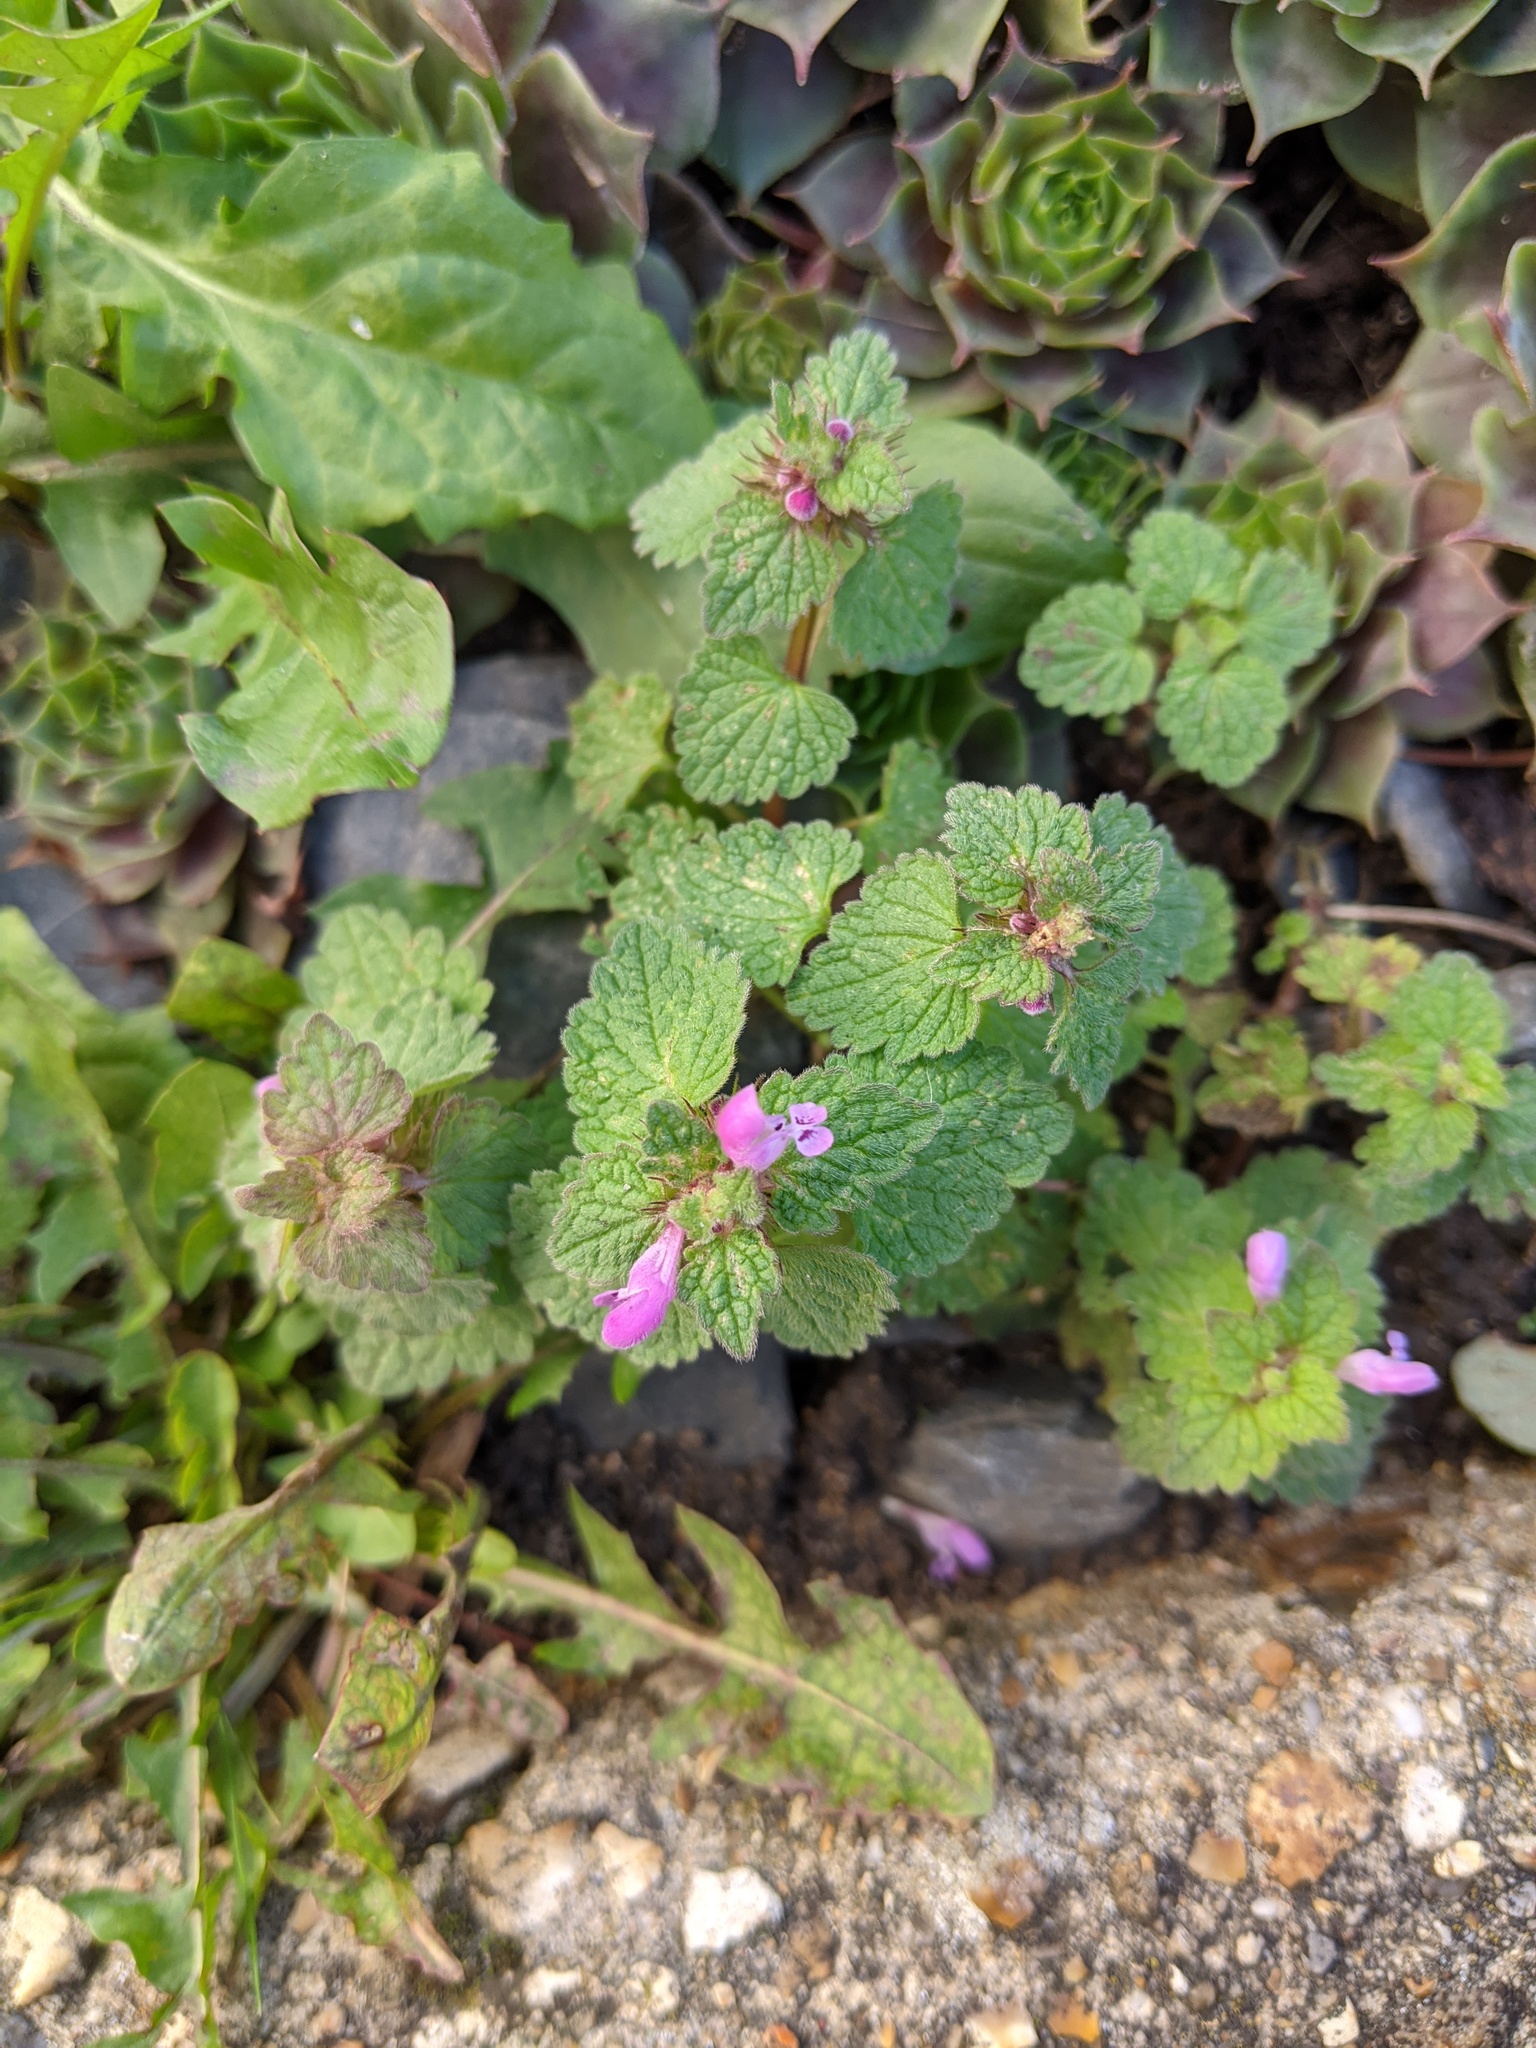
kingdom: Plantae
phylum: Tracheophyta
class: Magnoliopsida
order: Lamiales
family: Lamiaceae
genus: Lamium
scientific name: Lamium purpureum
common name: Red dead-nettle
